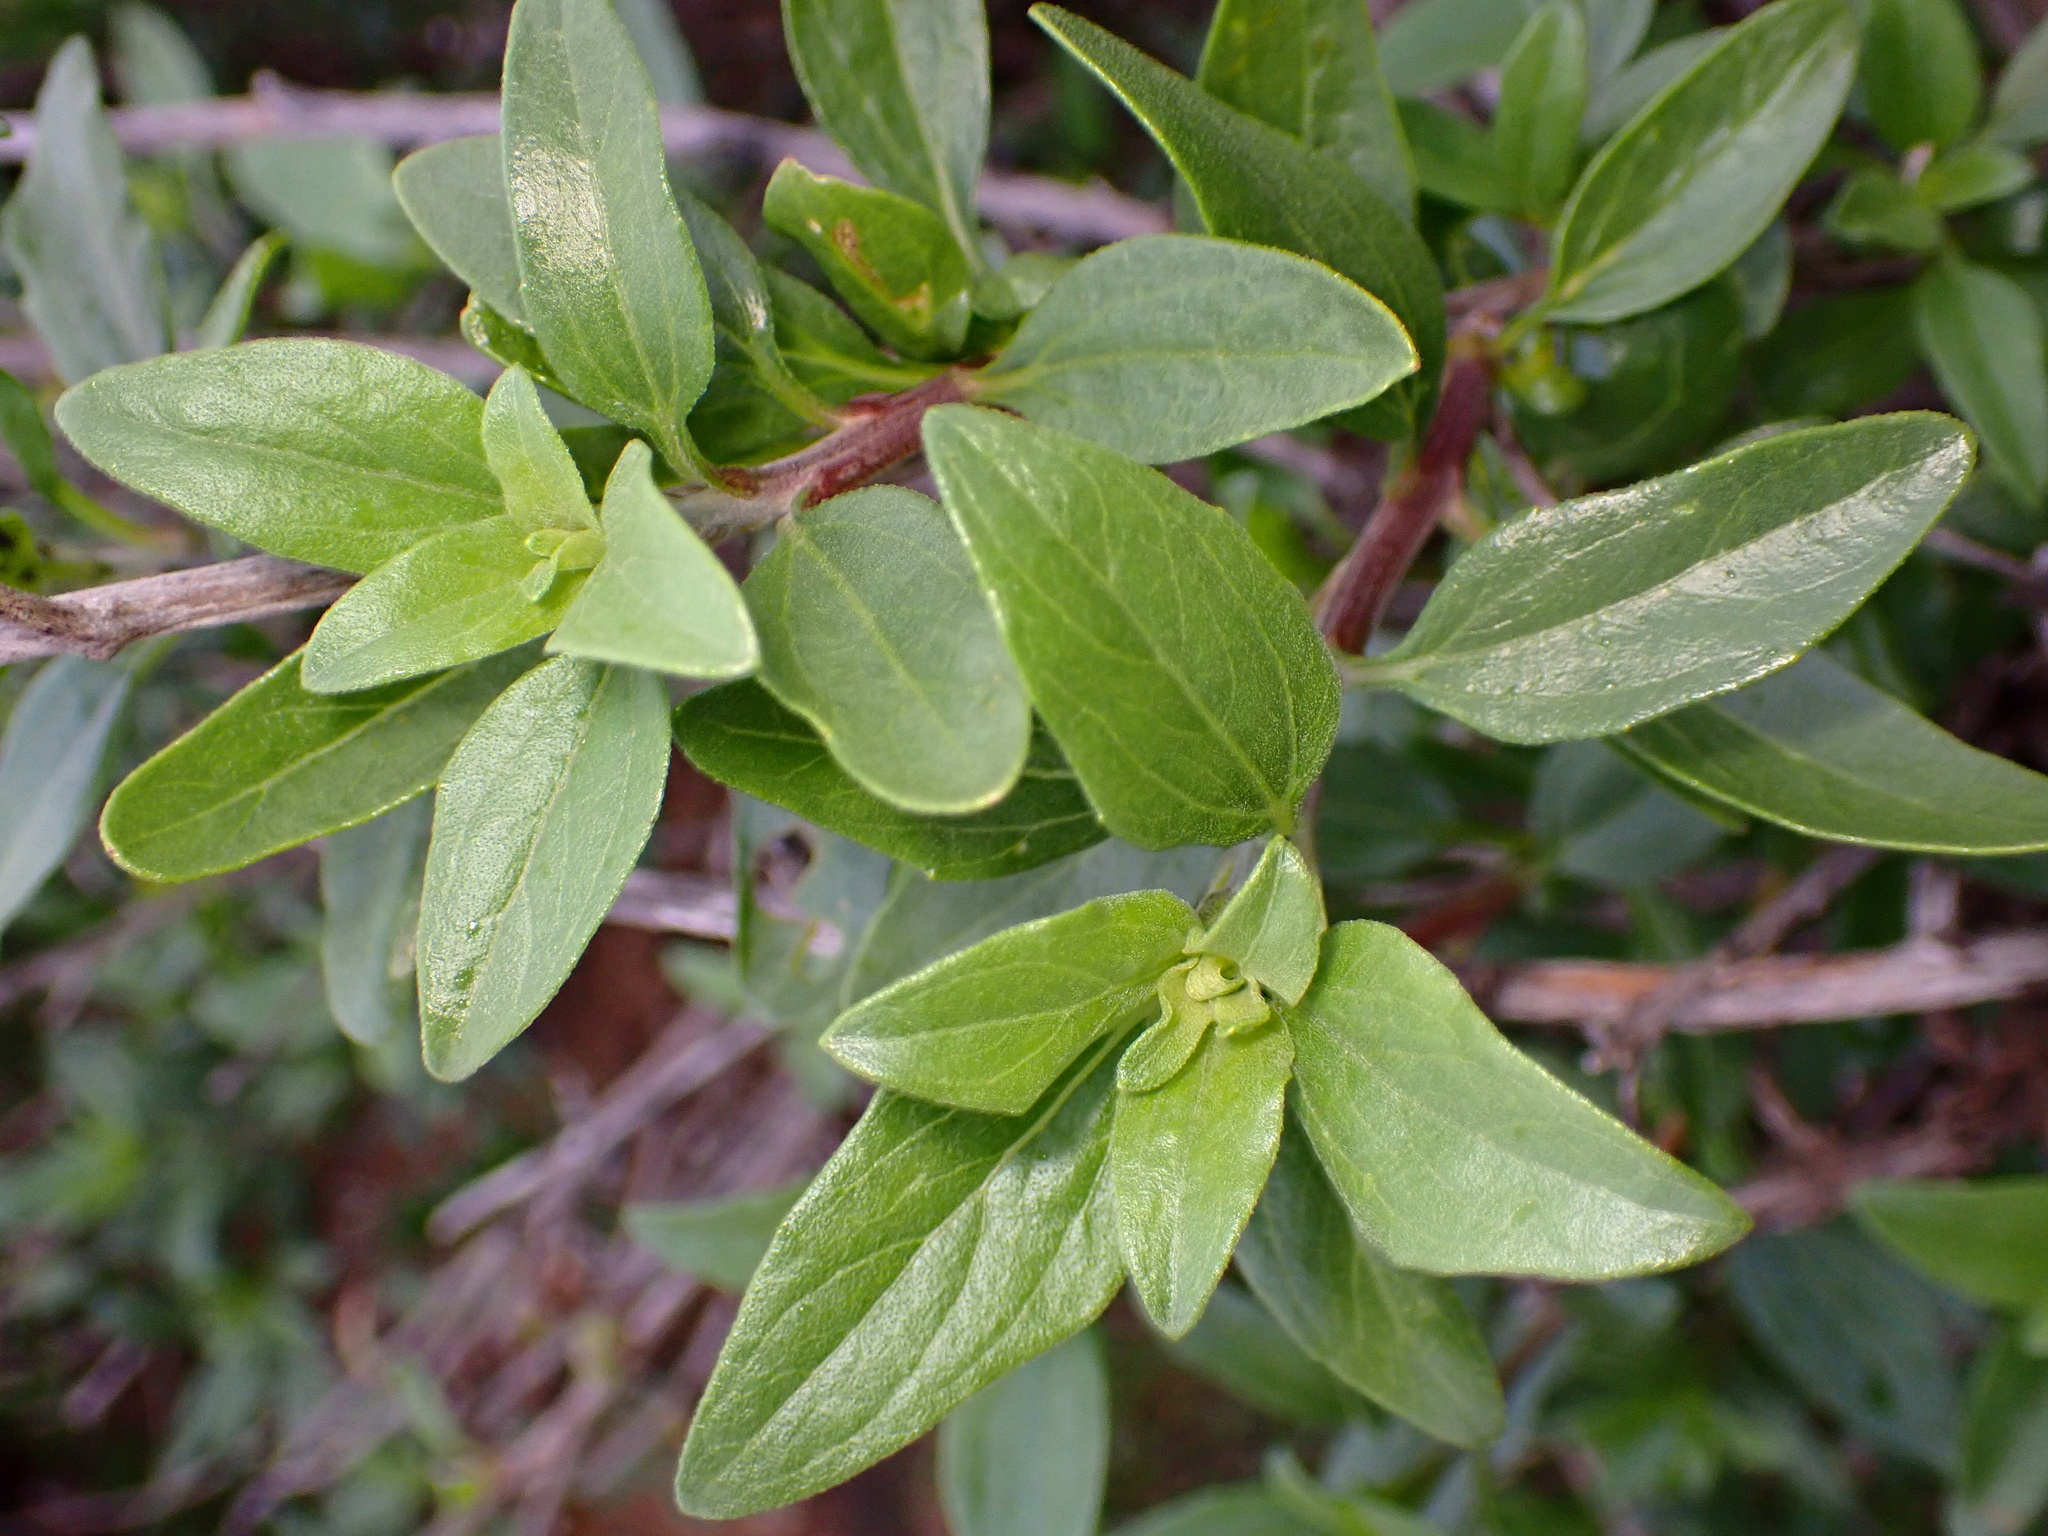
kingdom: Plantae
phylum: Tracheophyta
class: Magnoliopsida
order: Asterales
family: Asteraceae
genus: Encelia
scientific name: Encelia californica
